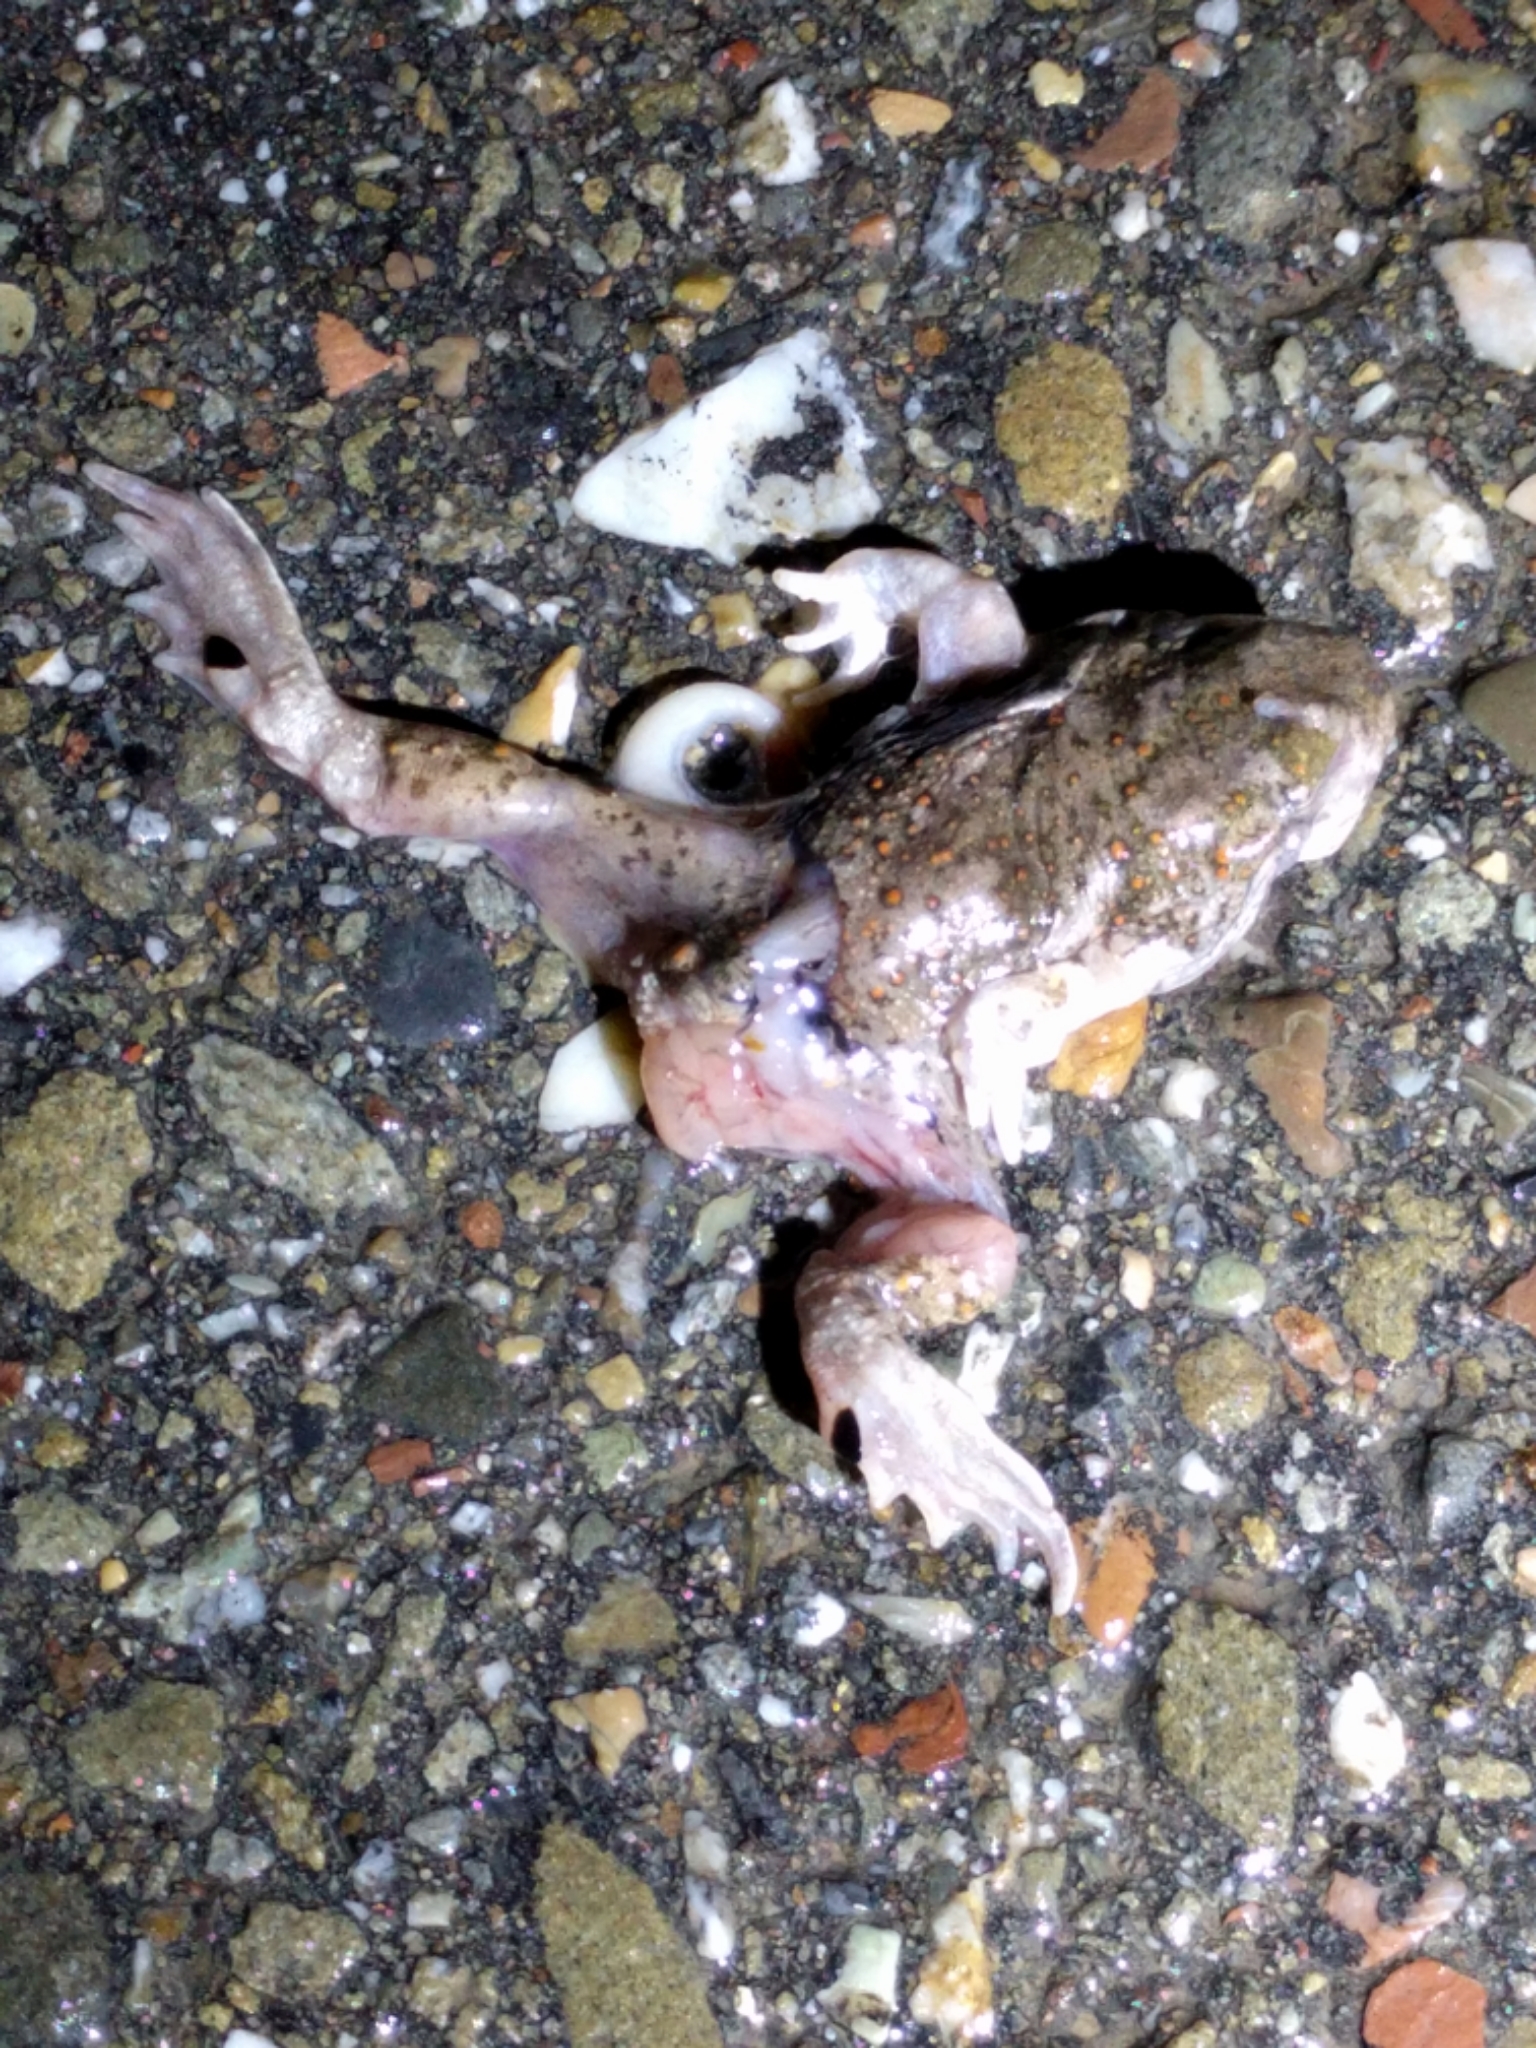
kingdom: Animalia
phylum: Chordata
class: Amphibia
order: Anura
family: Scaphiopodidae
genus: Spea
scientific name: Spea hammondii
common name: Western spadefoot toad
